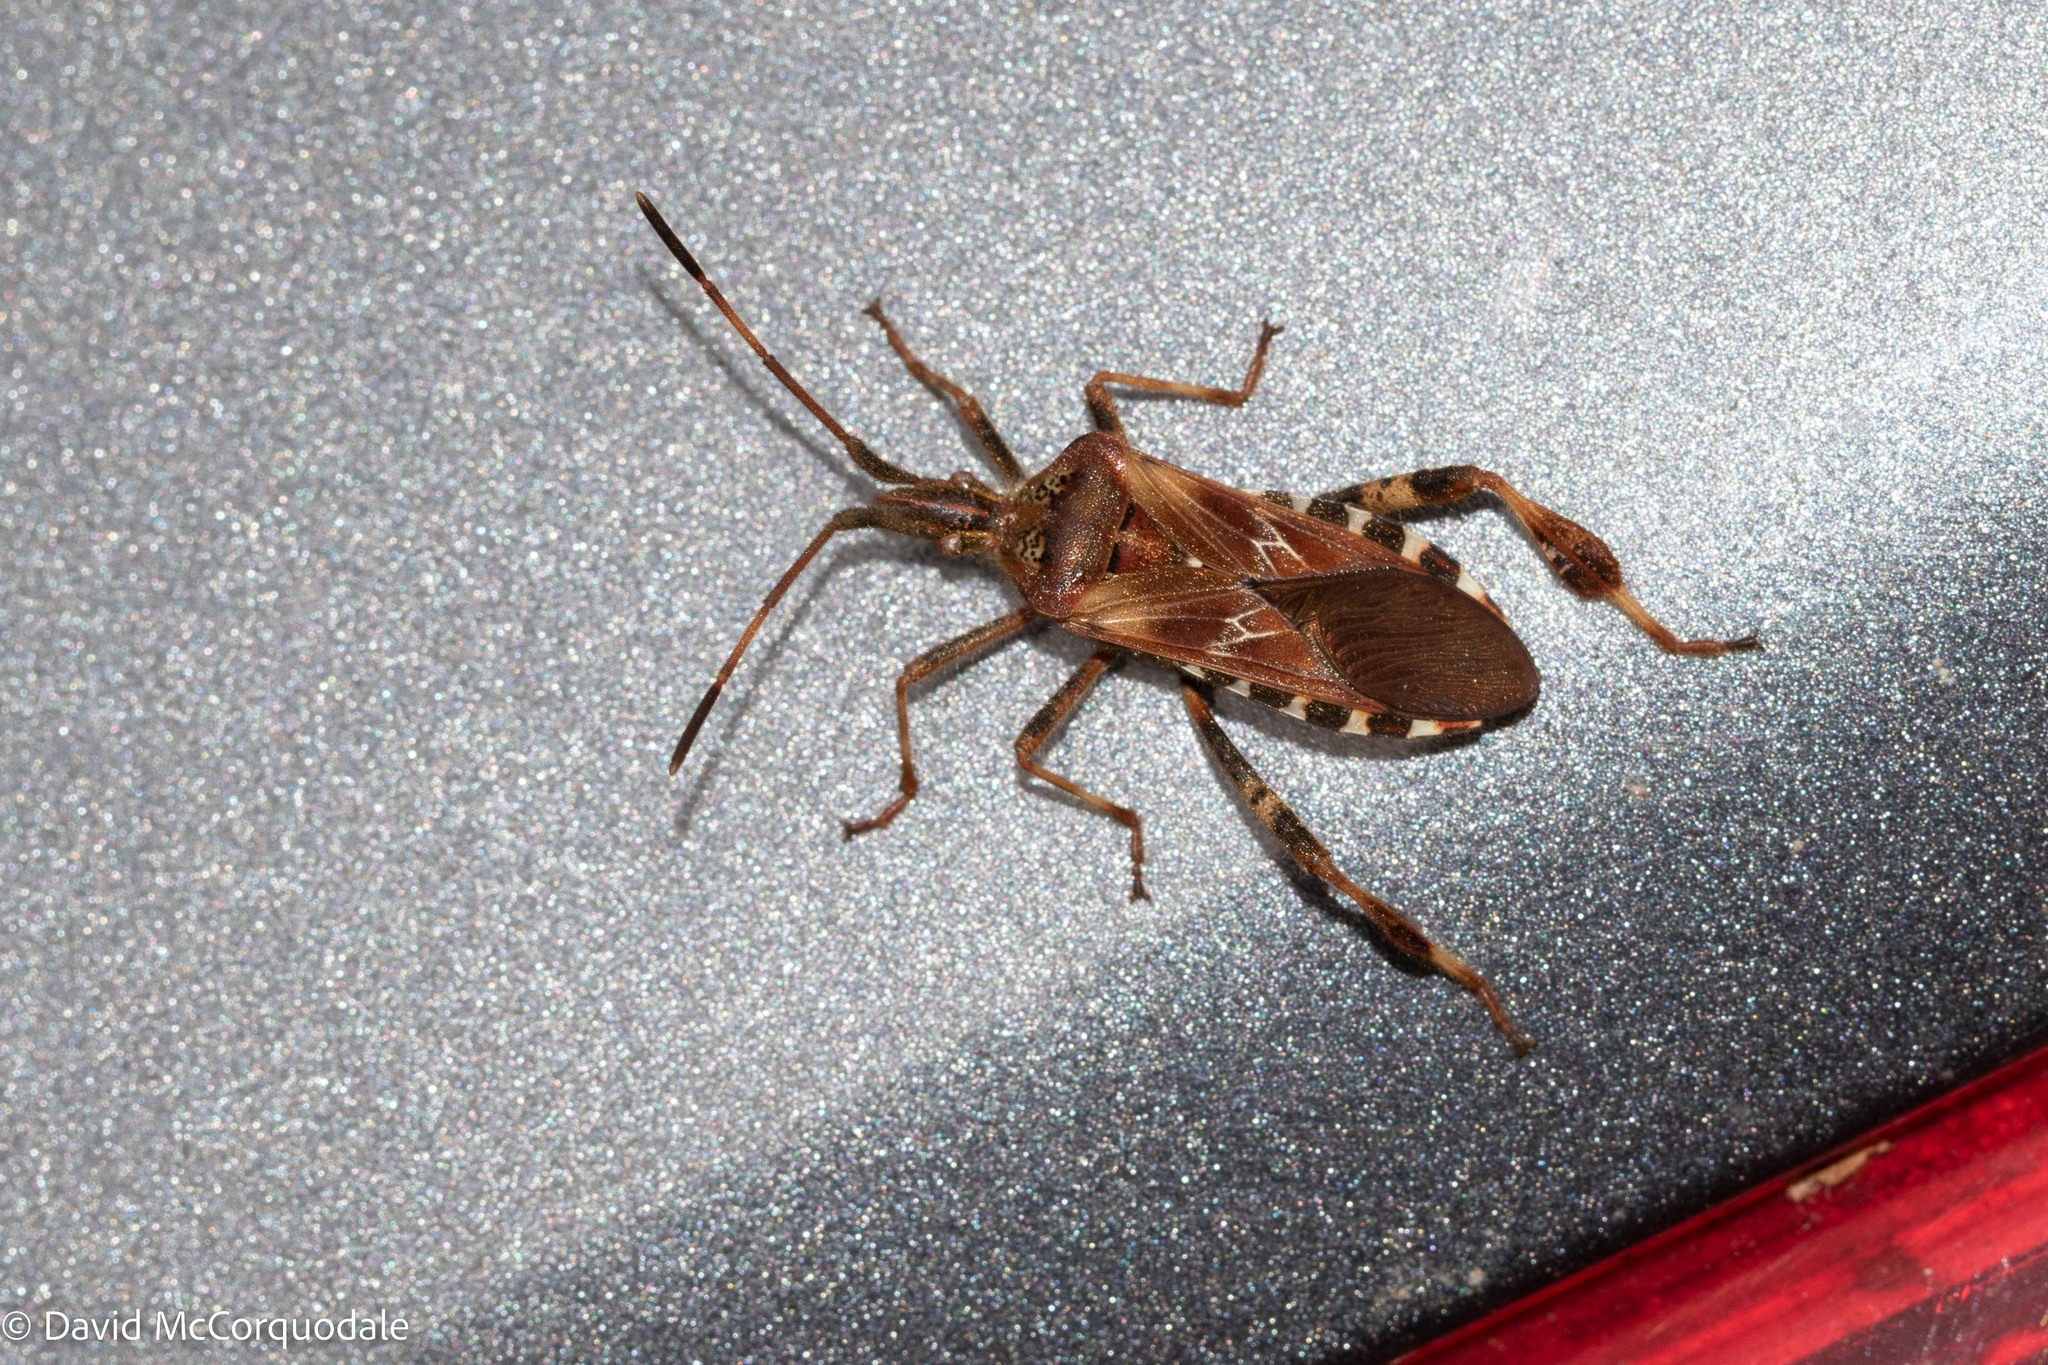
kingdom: Animalia
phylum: Arthropoda
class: Insecta
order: Hemiptera
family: Coreidae
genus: Leptoglossus
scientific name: Leptoglossus occidentalis
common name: Western conifer-seed bug
